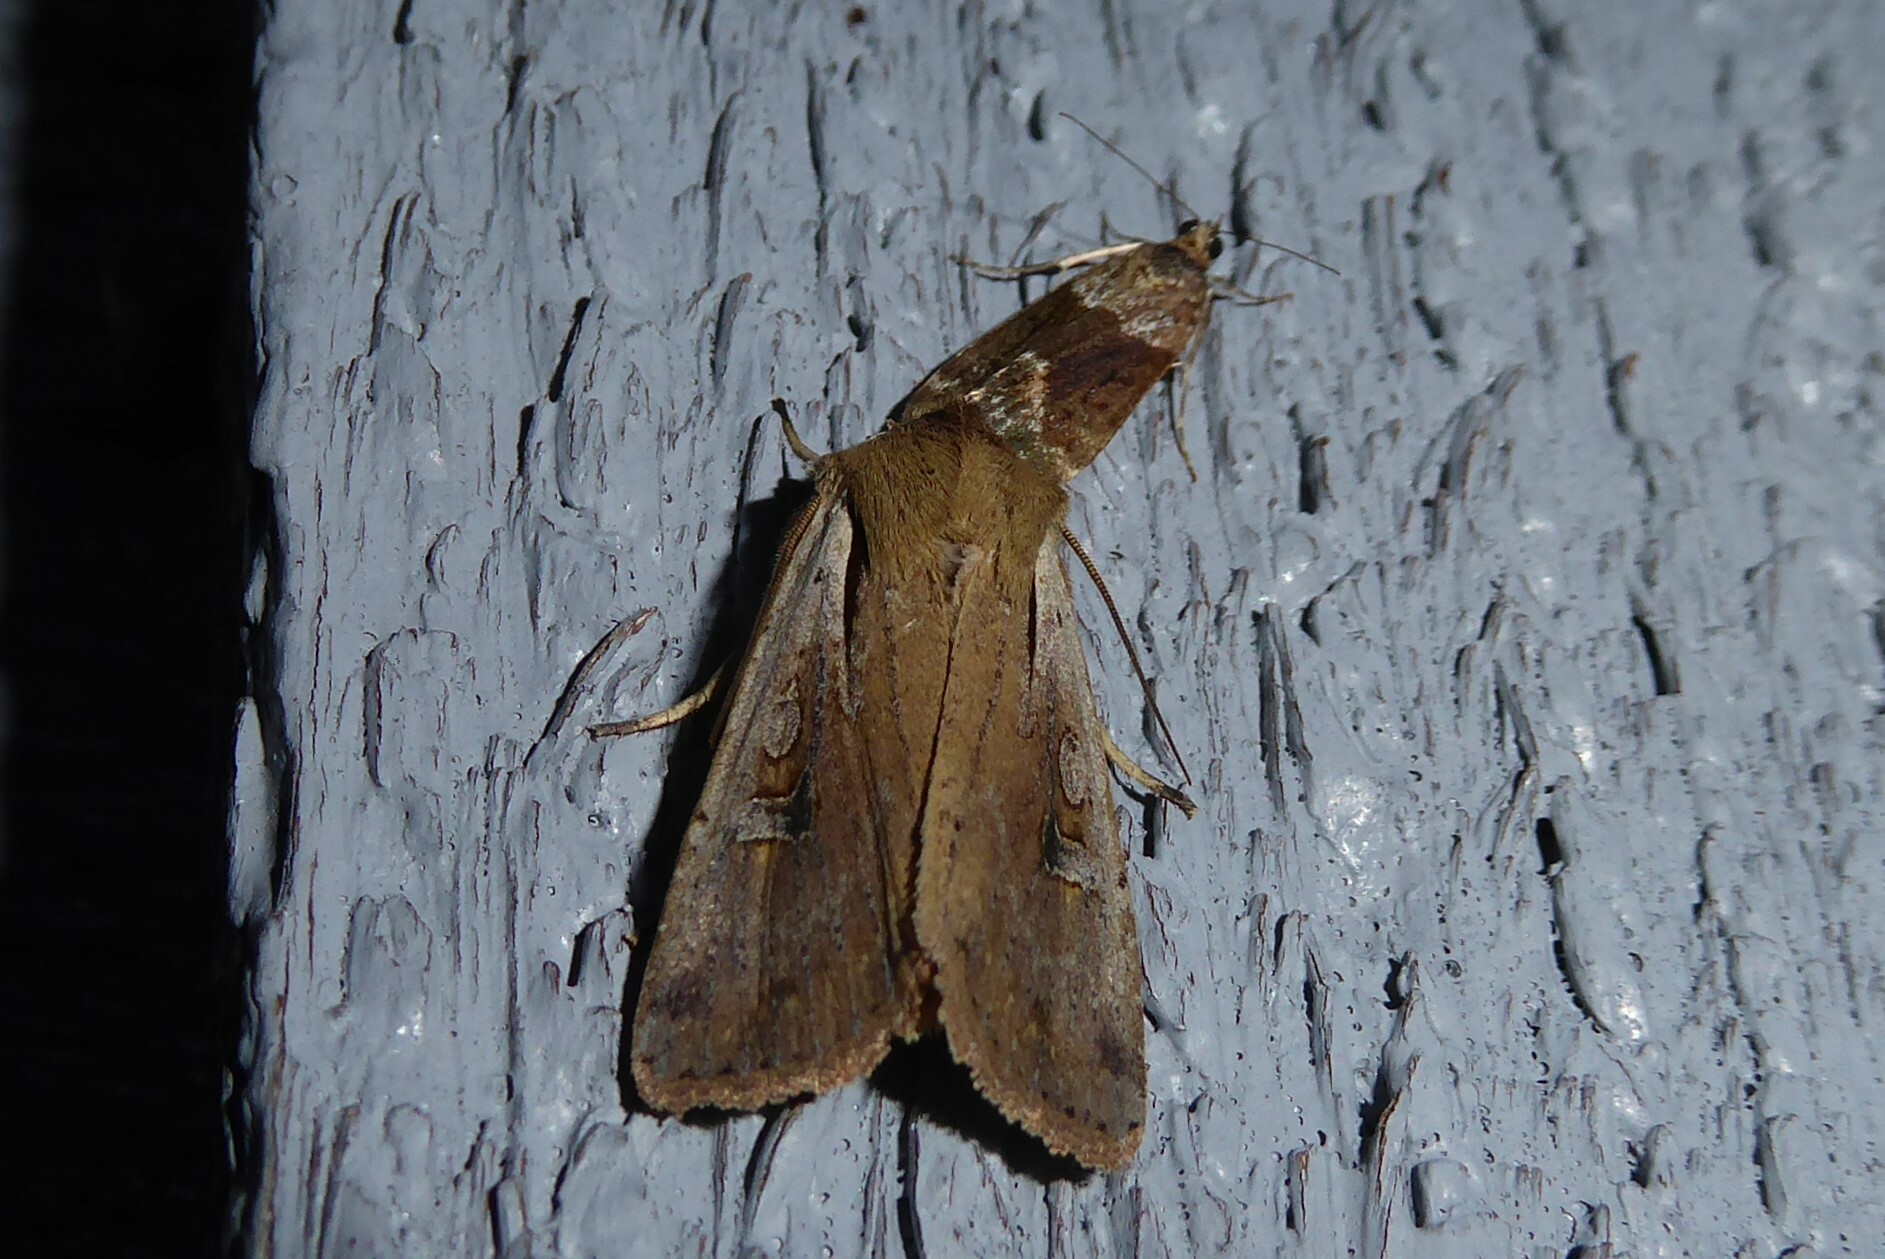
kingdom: Animalia
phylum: Arthropoda
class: Insecta
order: Lepidoptera
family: Noctuidae
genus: Ichneutica
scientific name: Ichneutica atristriga
